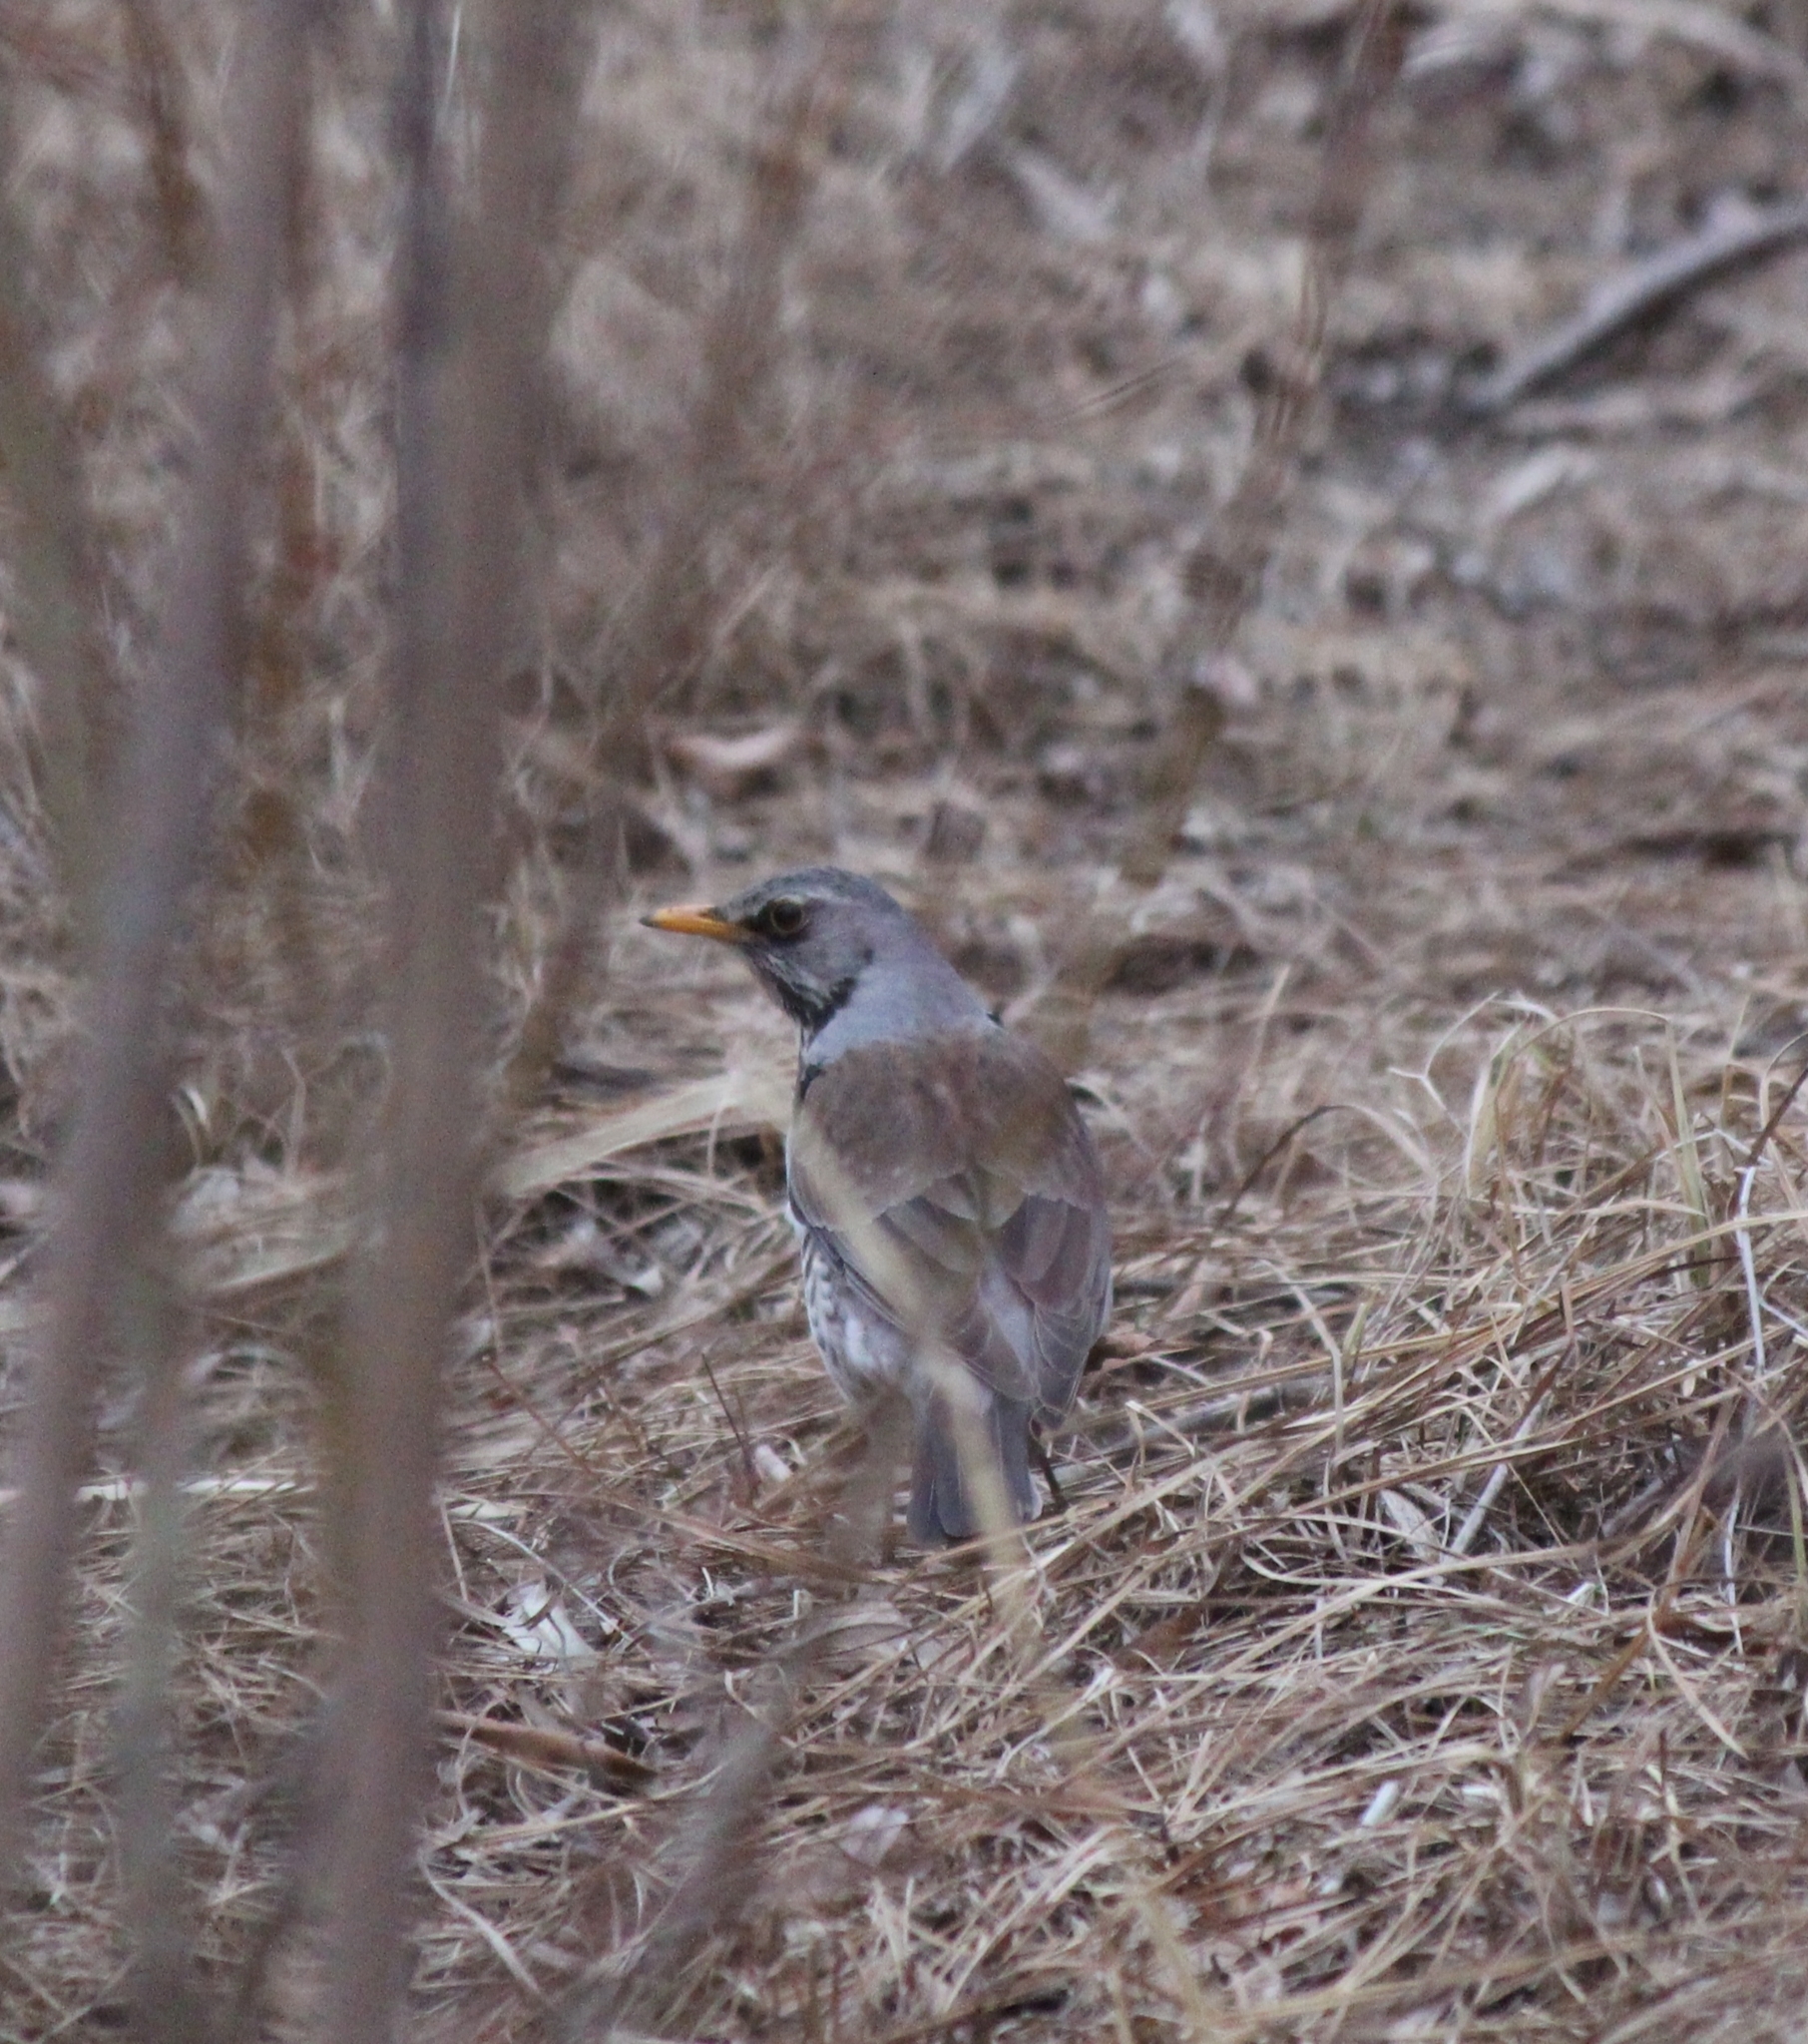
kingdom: Animalia
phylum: Chordata
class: Aves
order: Passeriformes
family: Turdidae
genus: Turdus
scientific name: Turdus pilaris
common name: Fieldfare
